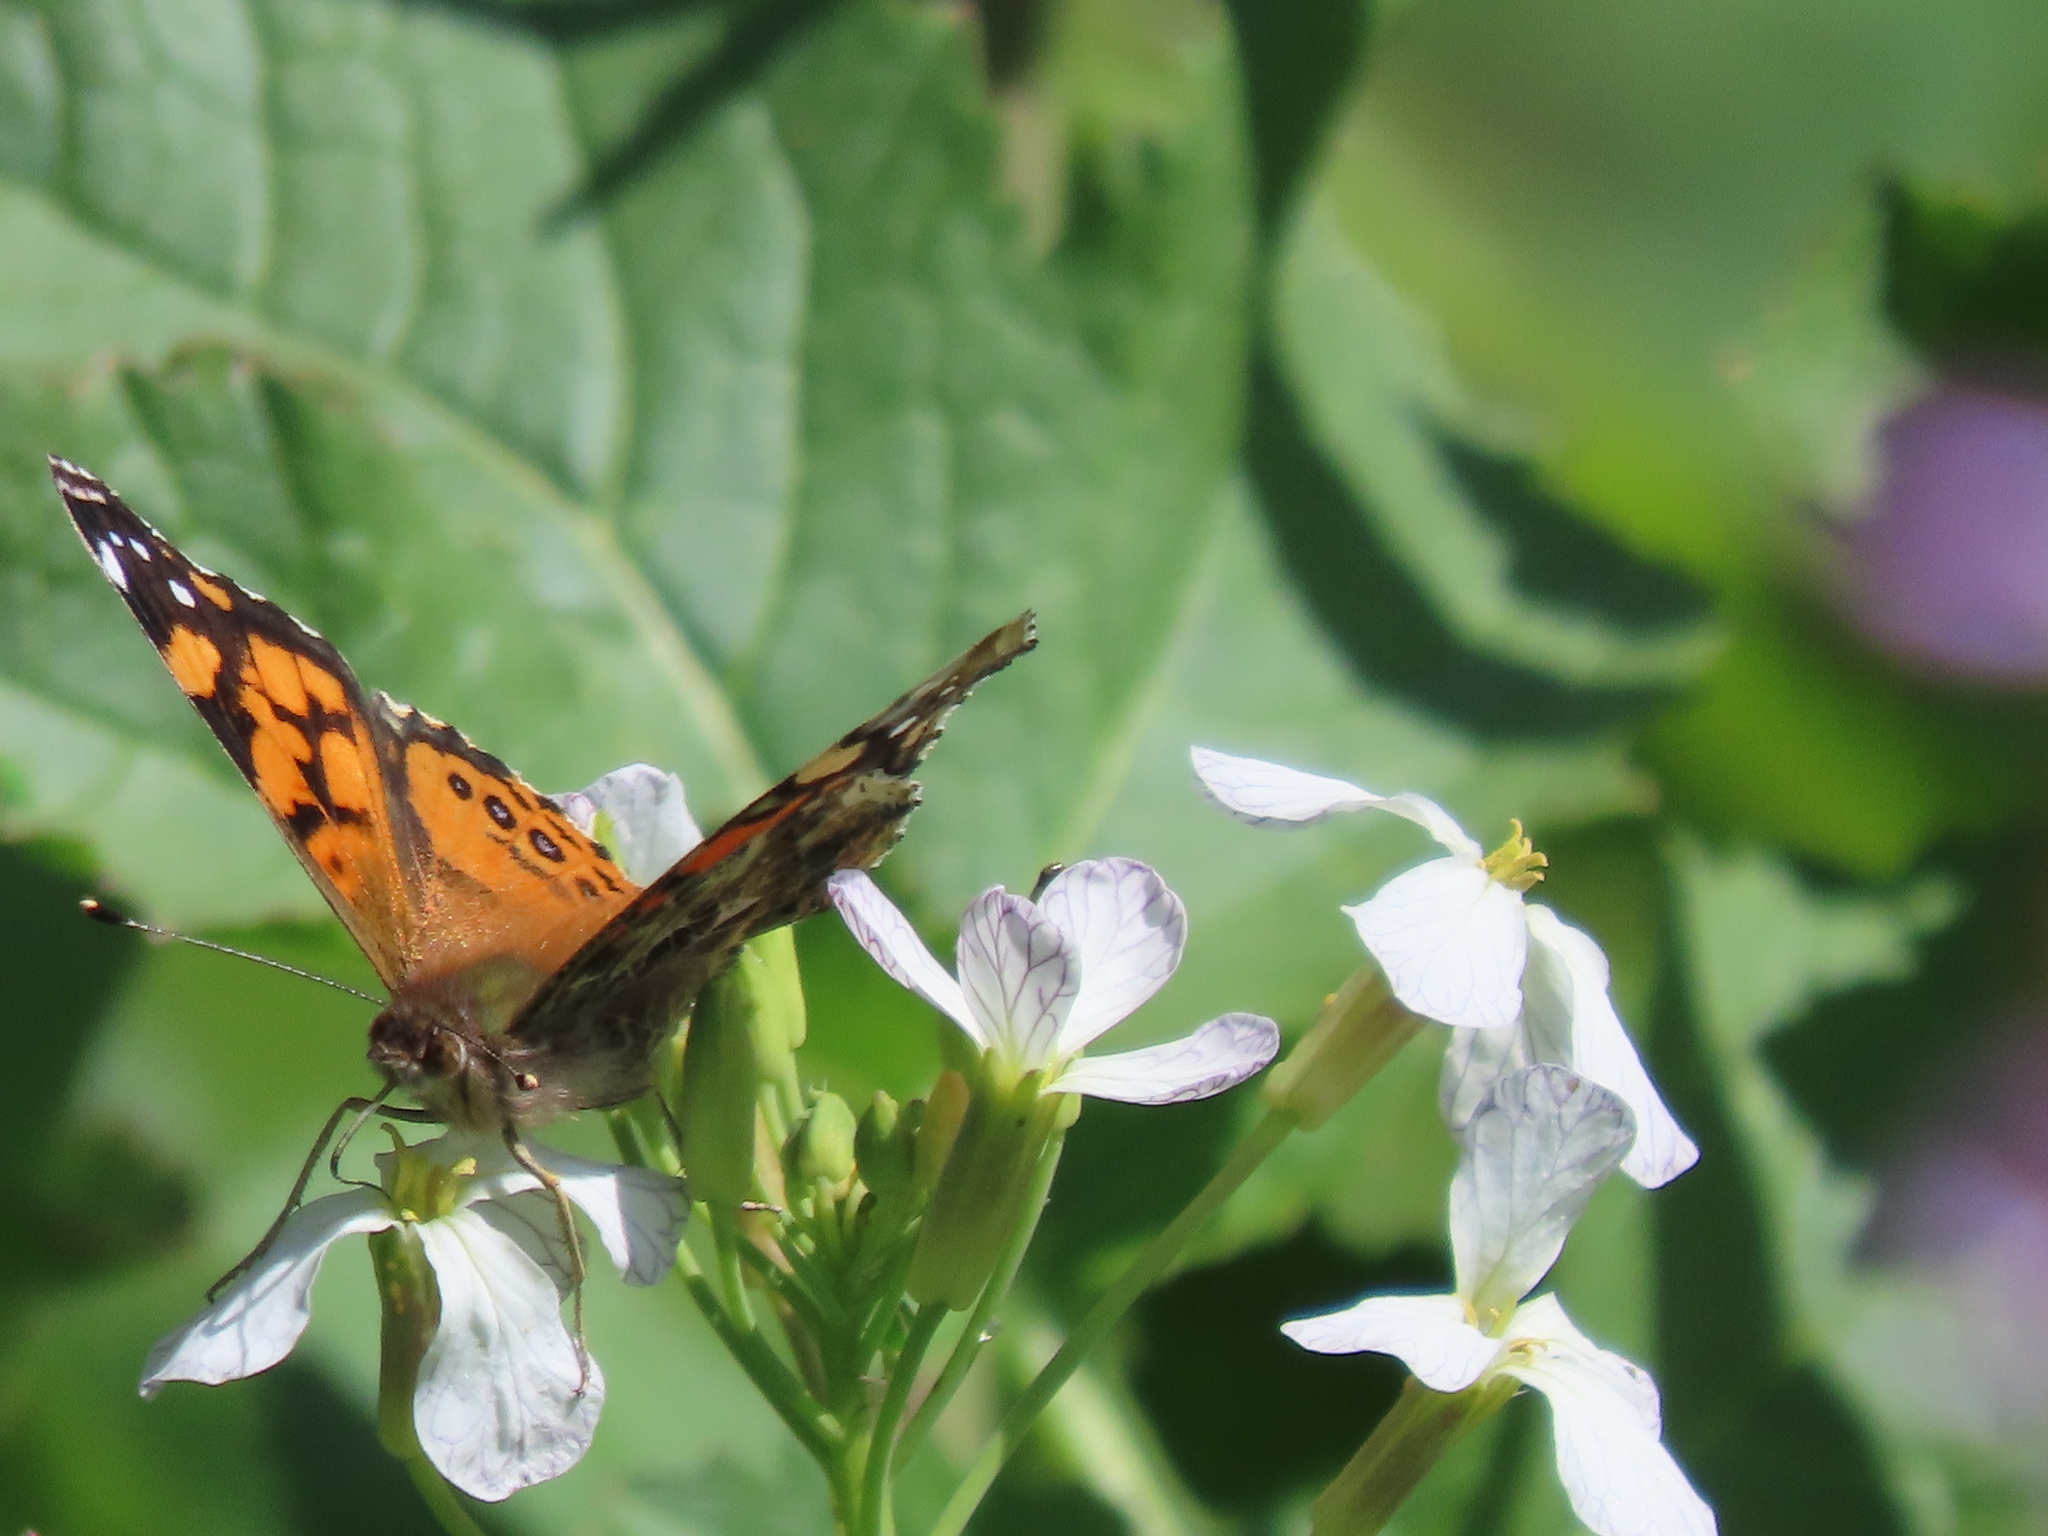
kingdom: Animalia
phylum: Arthropoda
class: Insecta
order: Lepidoptera
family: Nymphalidae
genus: Vanessa
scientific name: Vanessa annabella
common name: West coast lady
